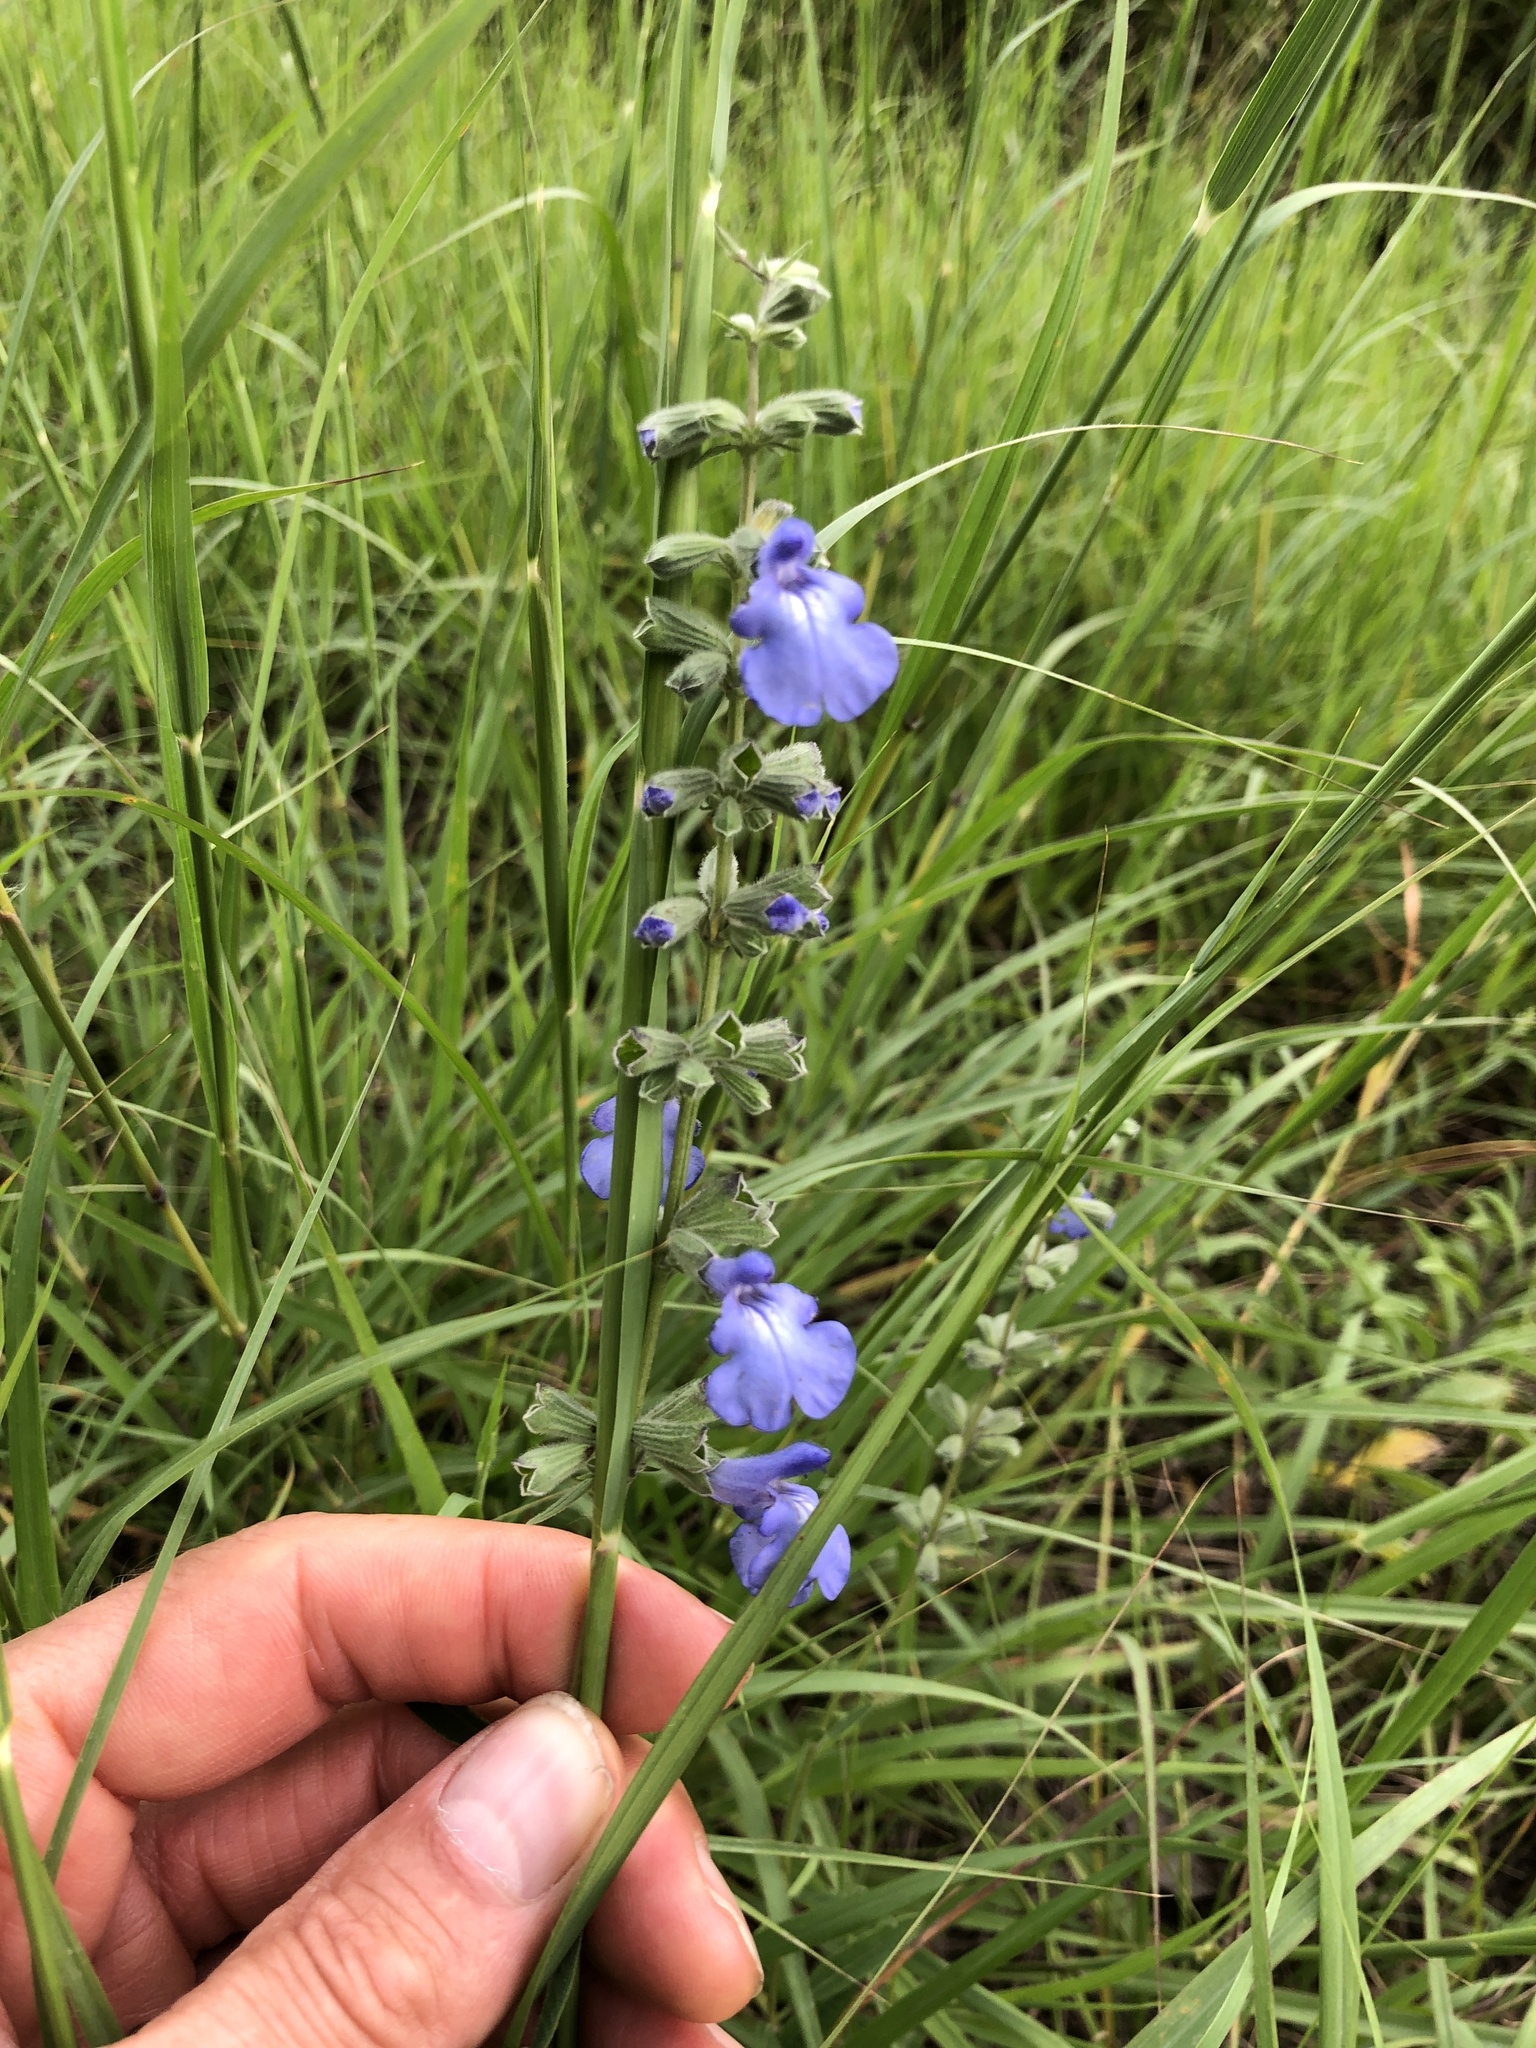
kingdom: Plantae
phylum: Tracheophyta
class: Magnoliopsida
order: Lamiales
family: Lamiaceae
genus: Salvia
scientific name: Salvia azurea
